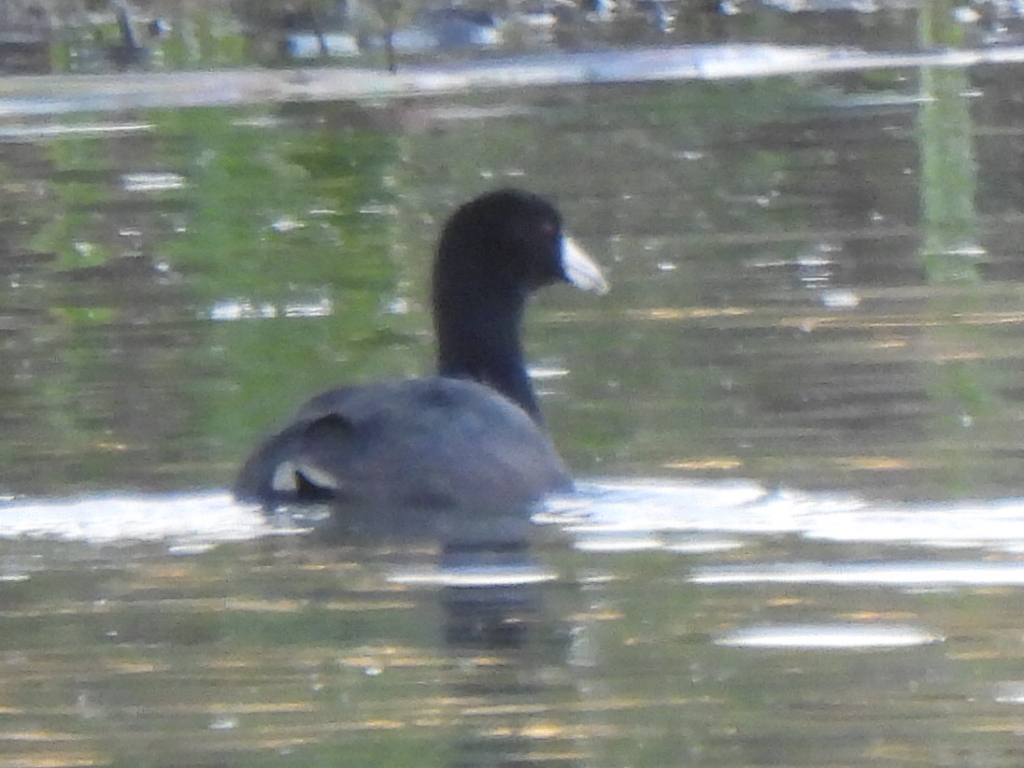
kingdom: Animalia
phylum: Chordata
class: Aves
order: Gruiformes
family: Rallidae
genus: Fulica
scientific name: Fulica americana
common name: American coot
